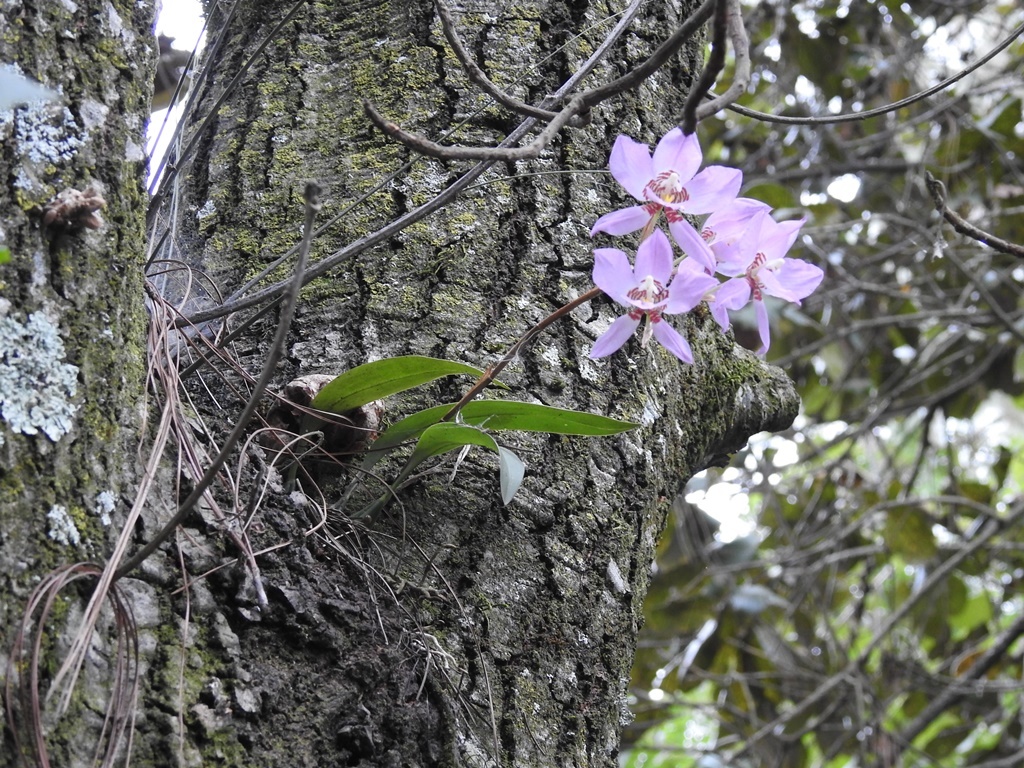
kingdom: Plantae
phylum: Tracheophyta
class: Liliopsida
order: Asparagales
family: Orchidaceae
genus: Rhynchostele
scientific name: Rhynchostele cervantesii
